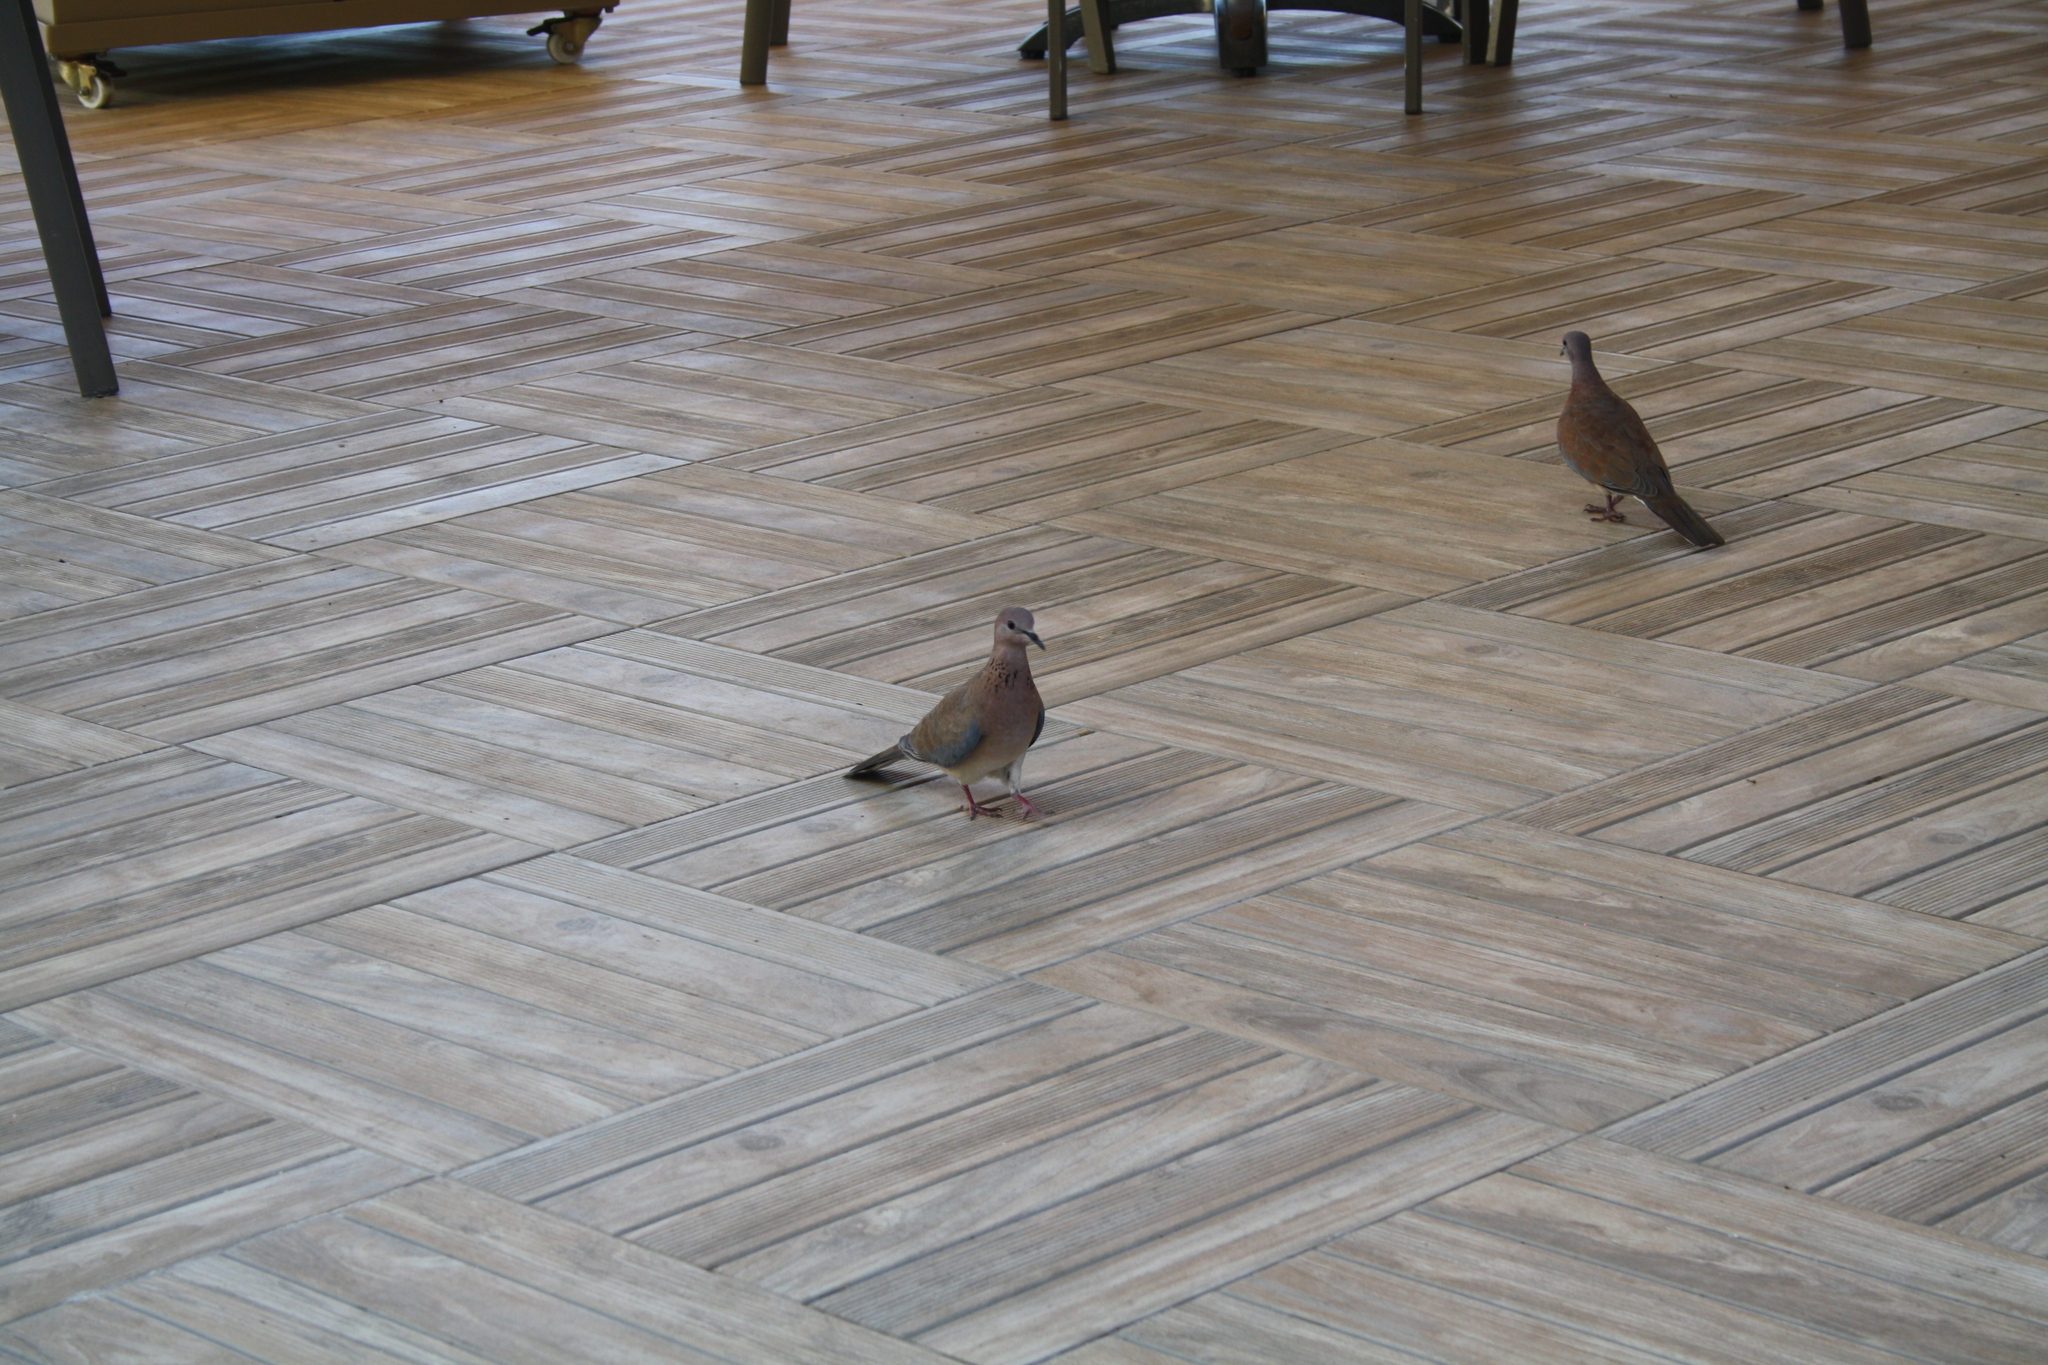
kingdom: Animalia
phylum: Chordata
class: Aves
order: Columbiformes
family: Columbidae
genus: Spilopelia
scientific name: Spilopelia senegalensis
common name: Laughing dove
